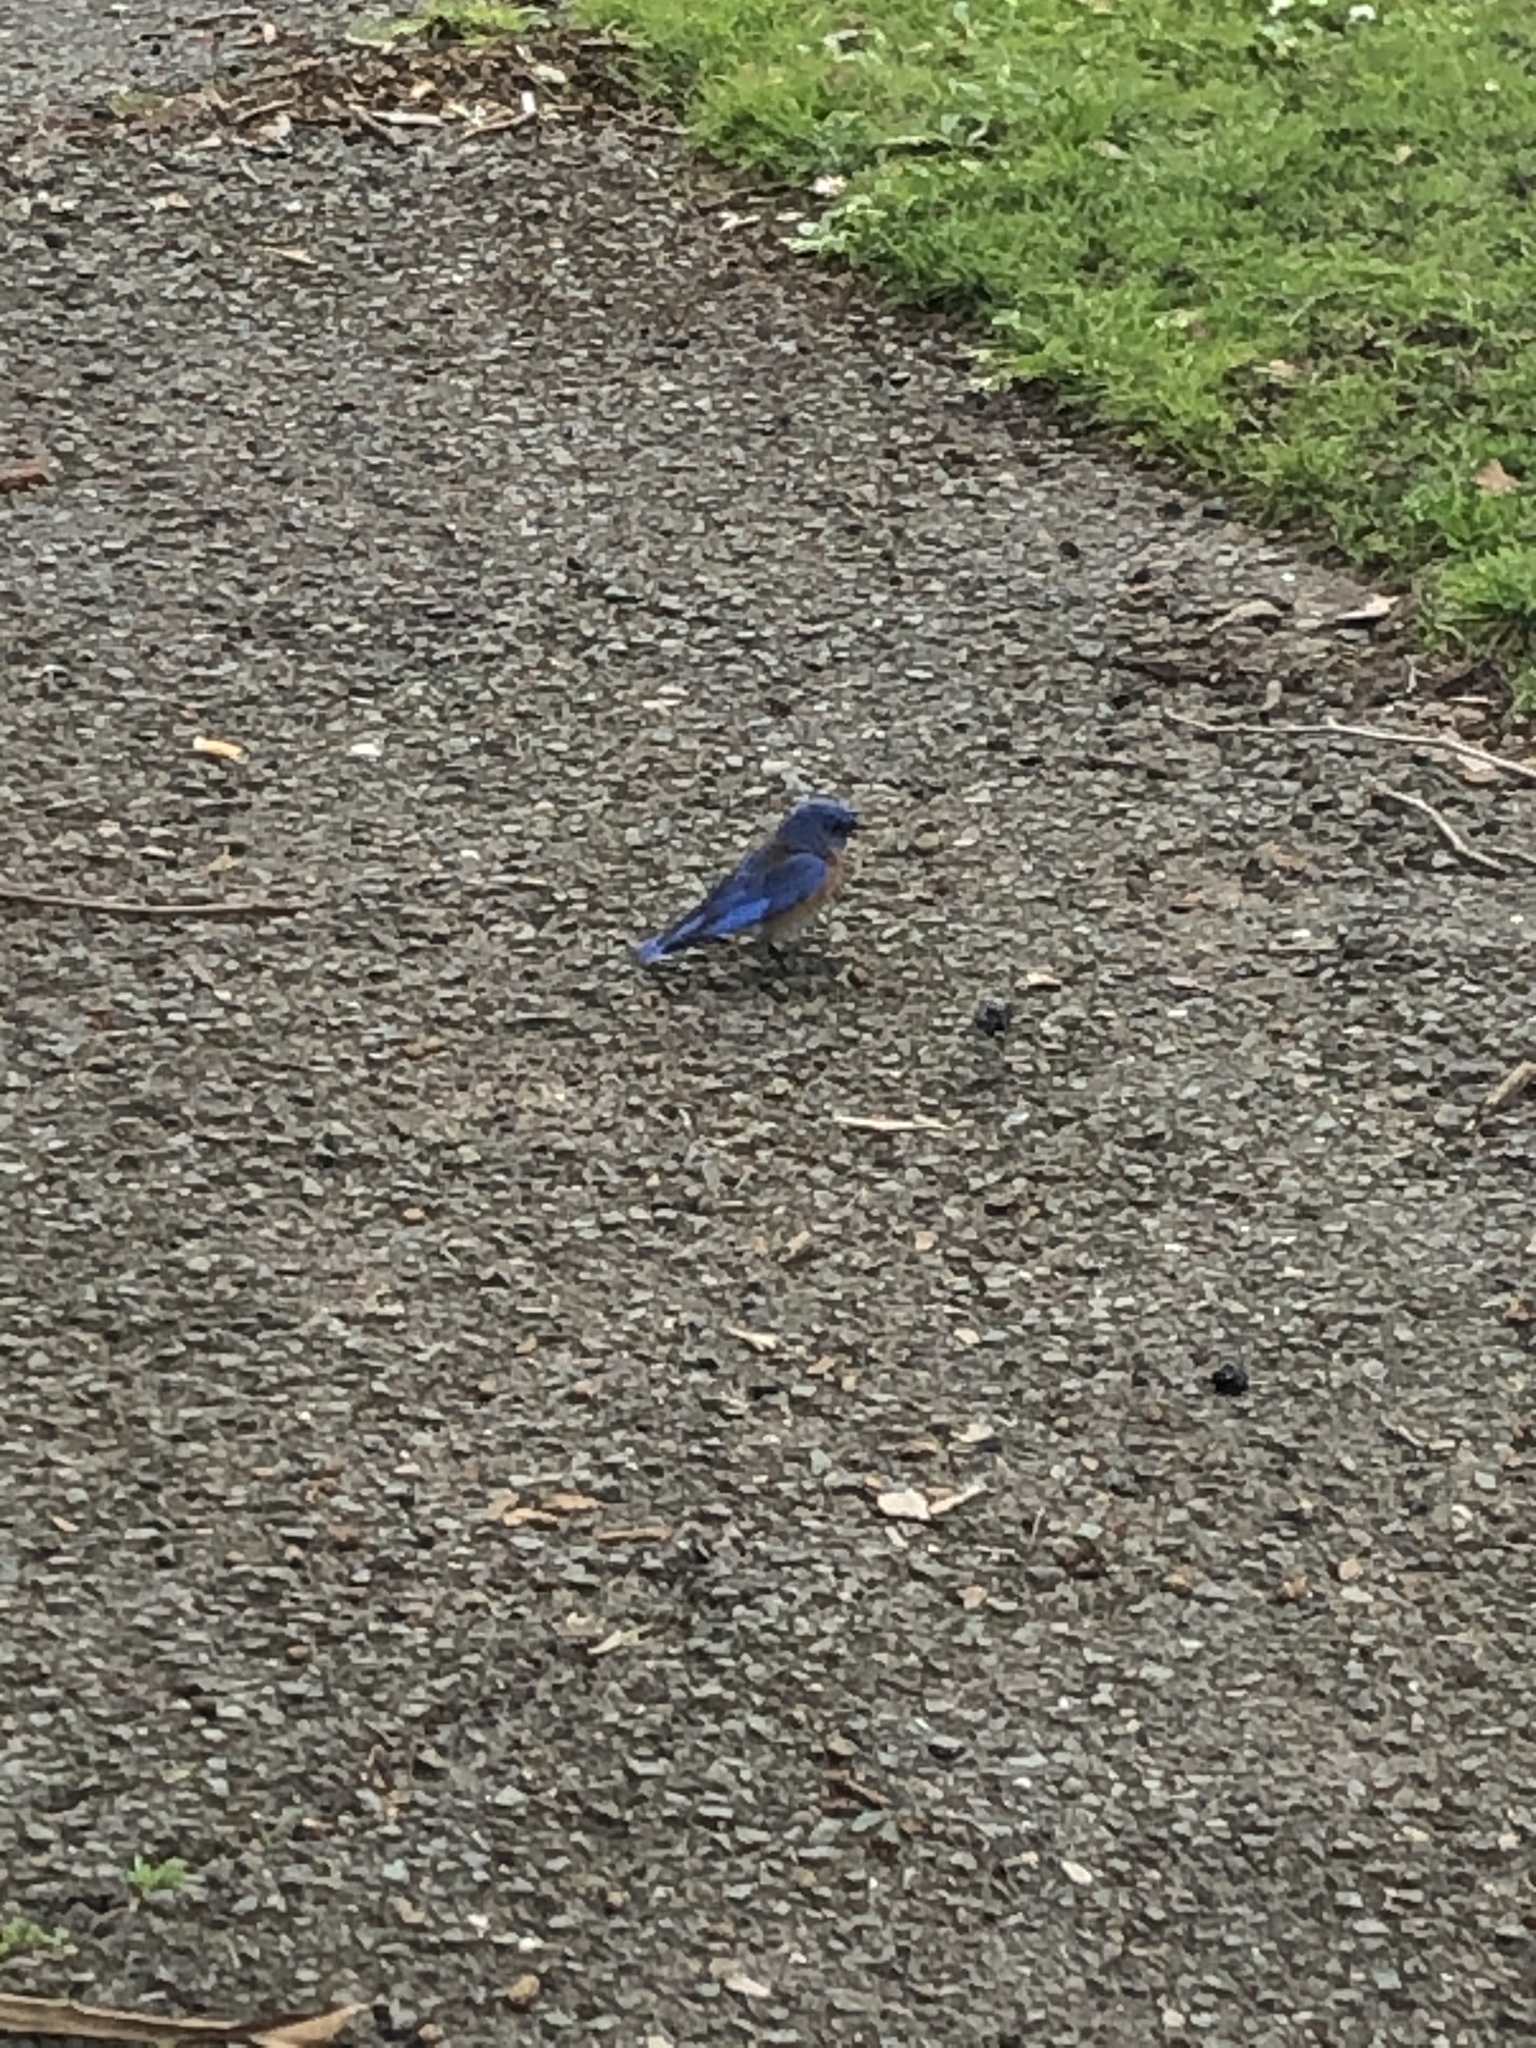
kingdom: Animalia
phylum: Chordata
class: Aves
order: Passeriformes
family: Turdidae
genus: Sialia
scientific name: Sialia mexicana
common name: Western bluebird
